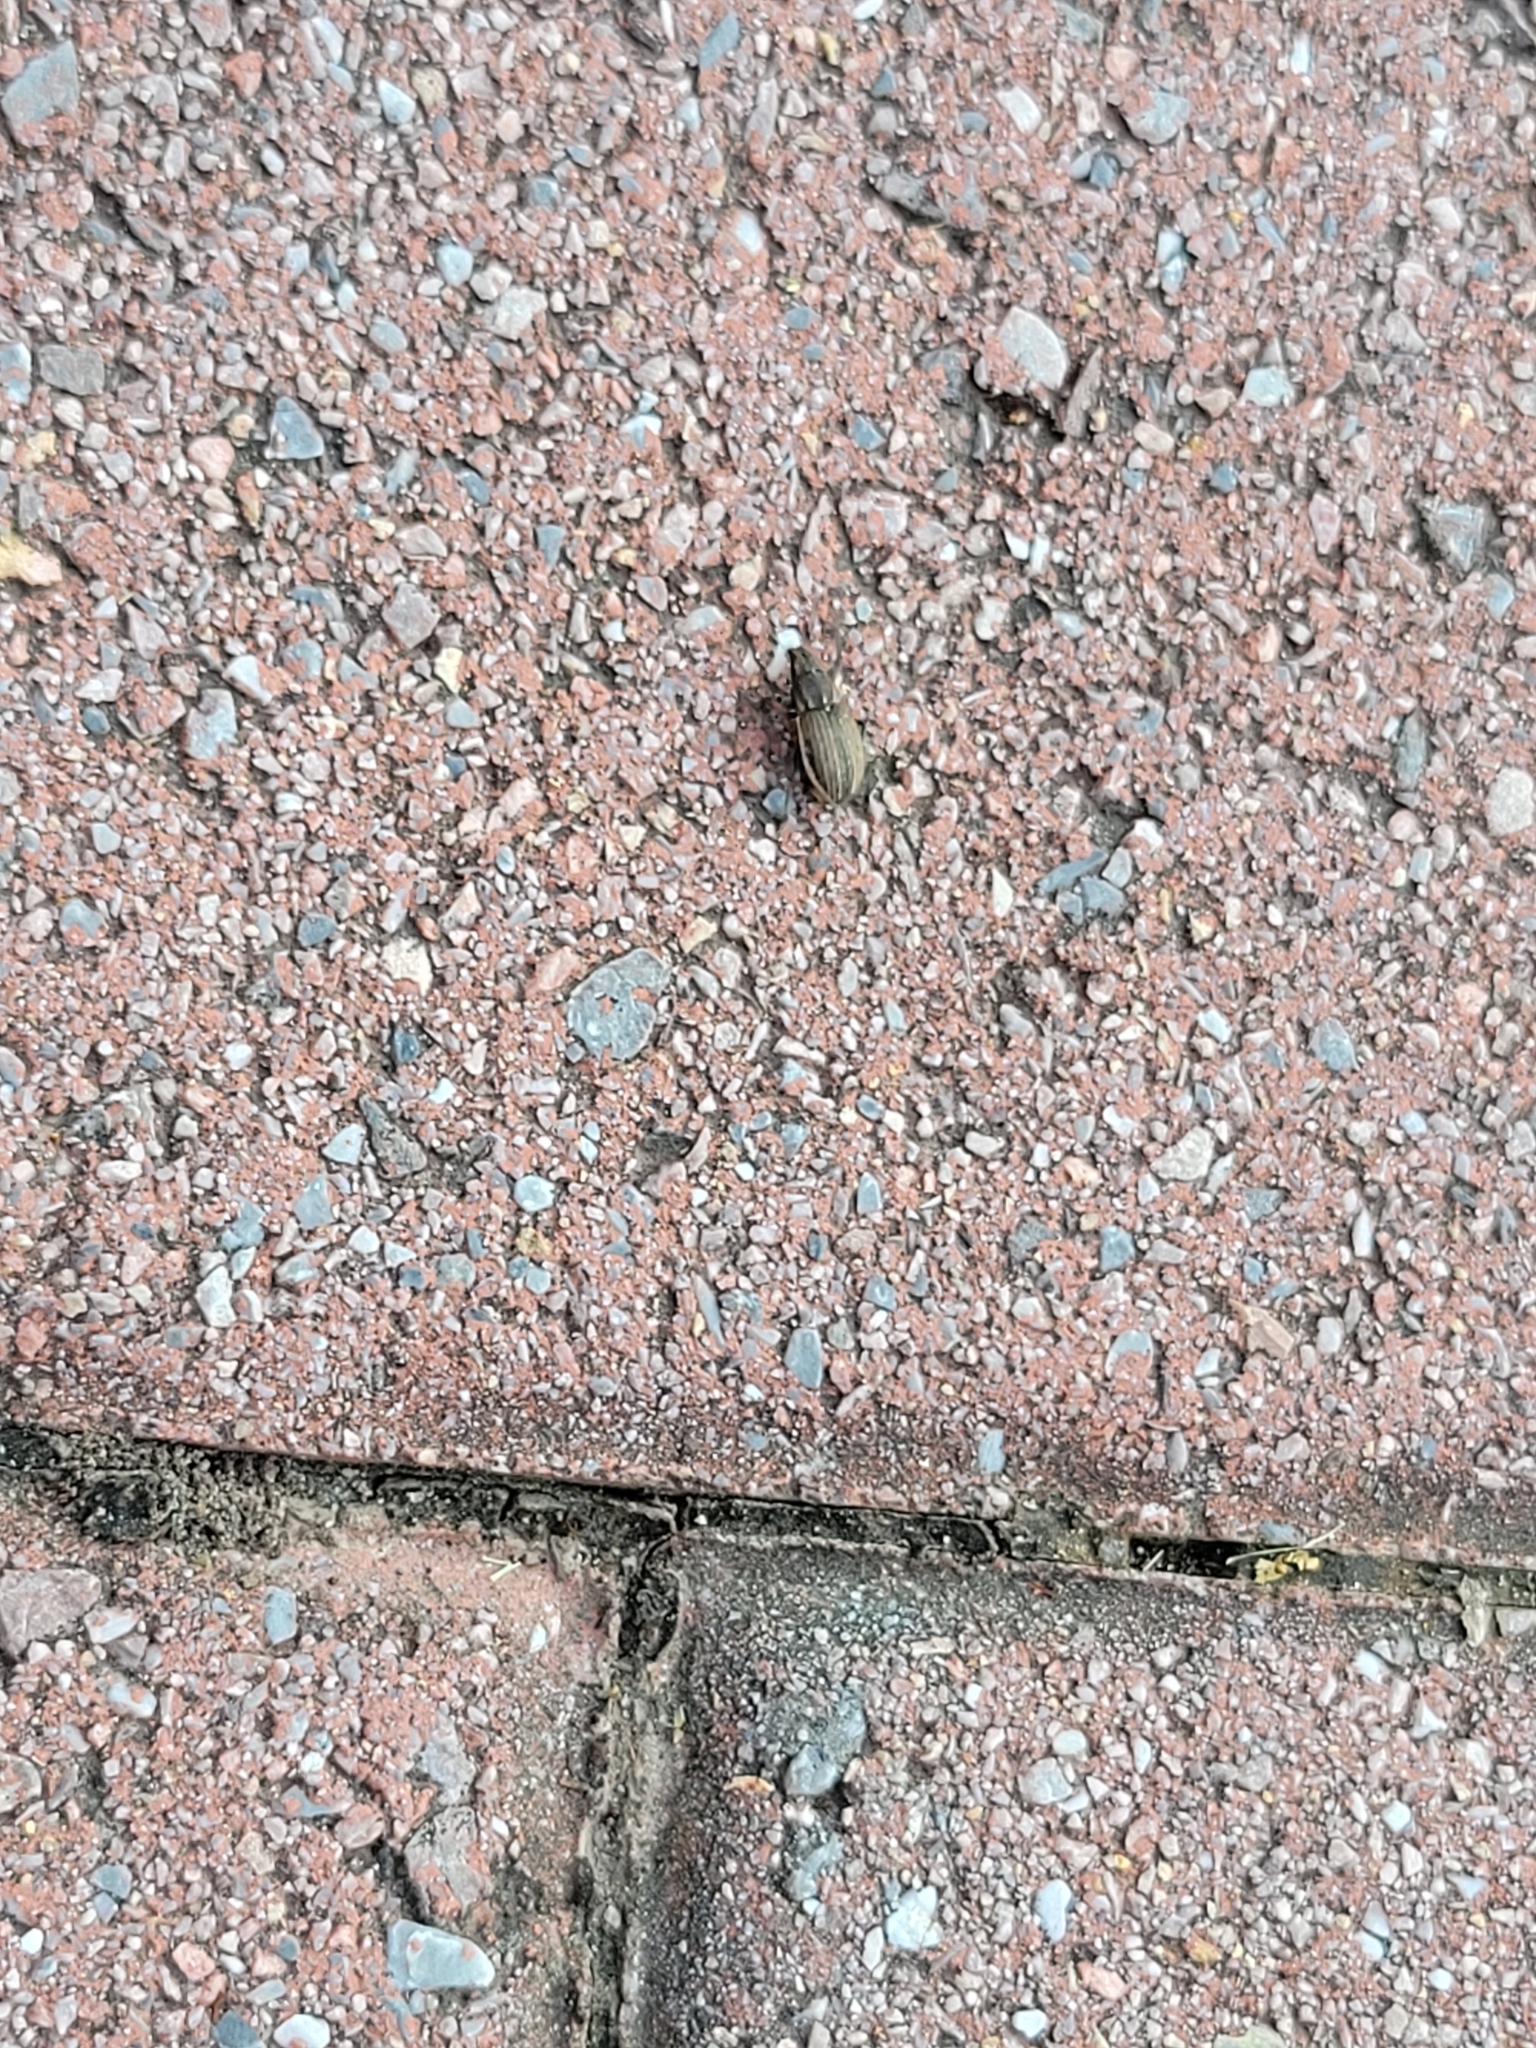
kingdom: Animalia
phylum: Arthropoda
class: Insecta
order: Coleoptera
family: Curculionidae
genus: Naupactus
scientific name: Naupactus leucoloma
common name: Whitefringed beetle
